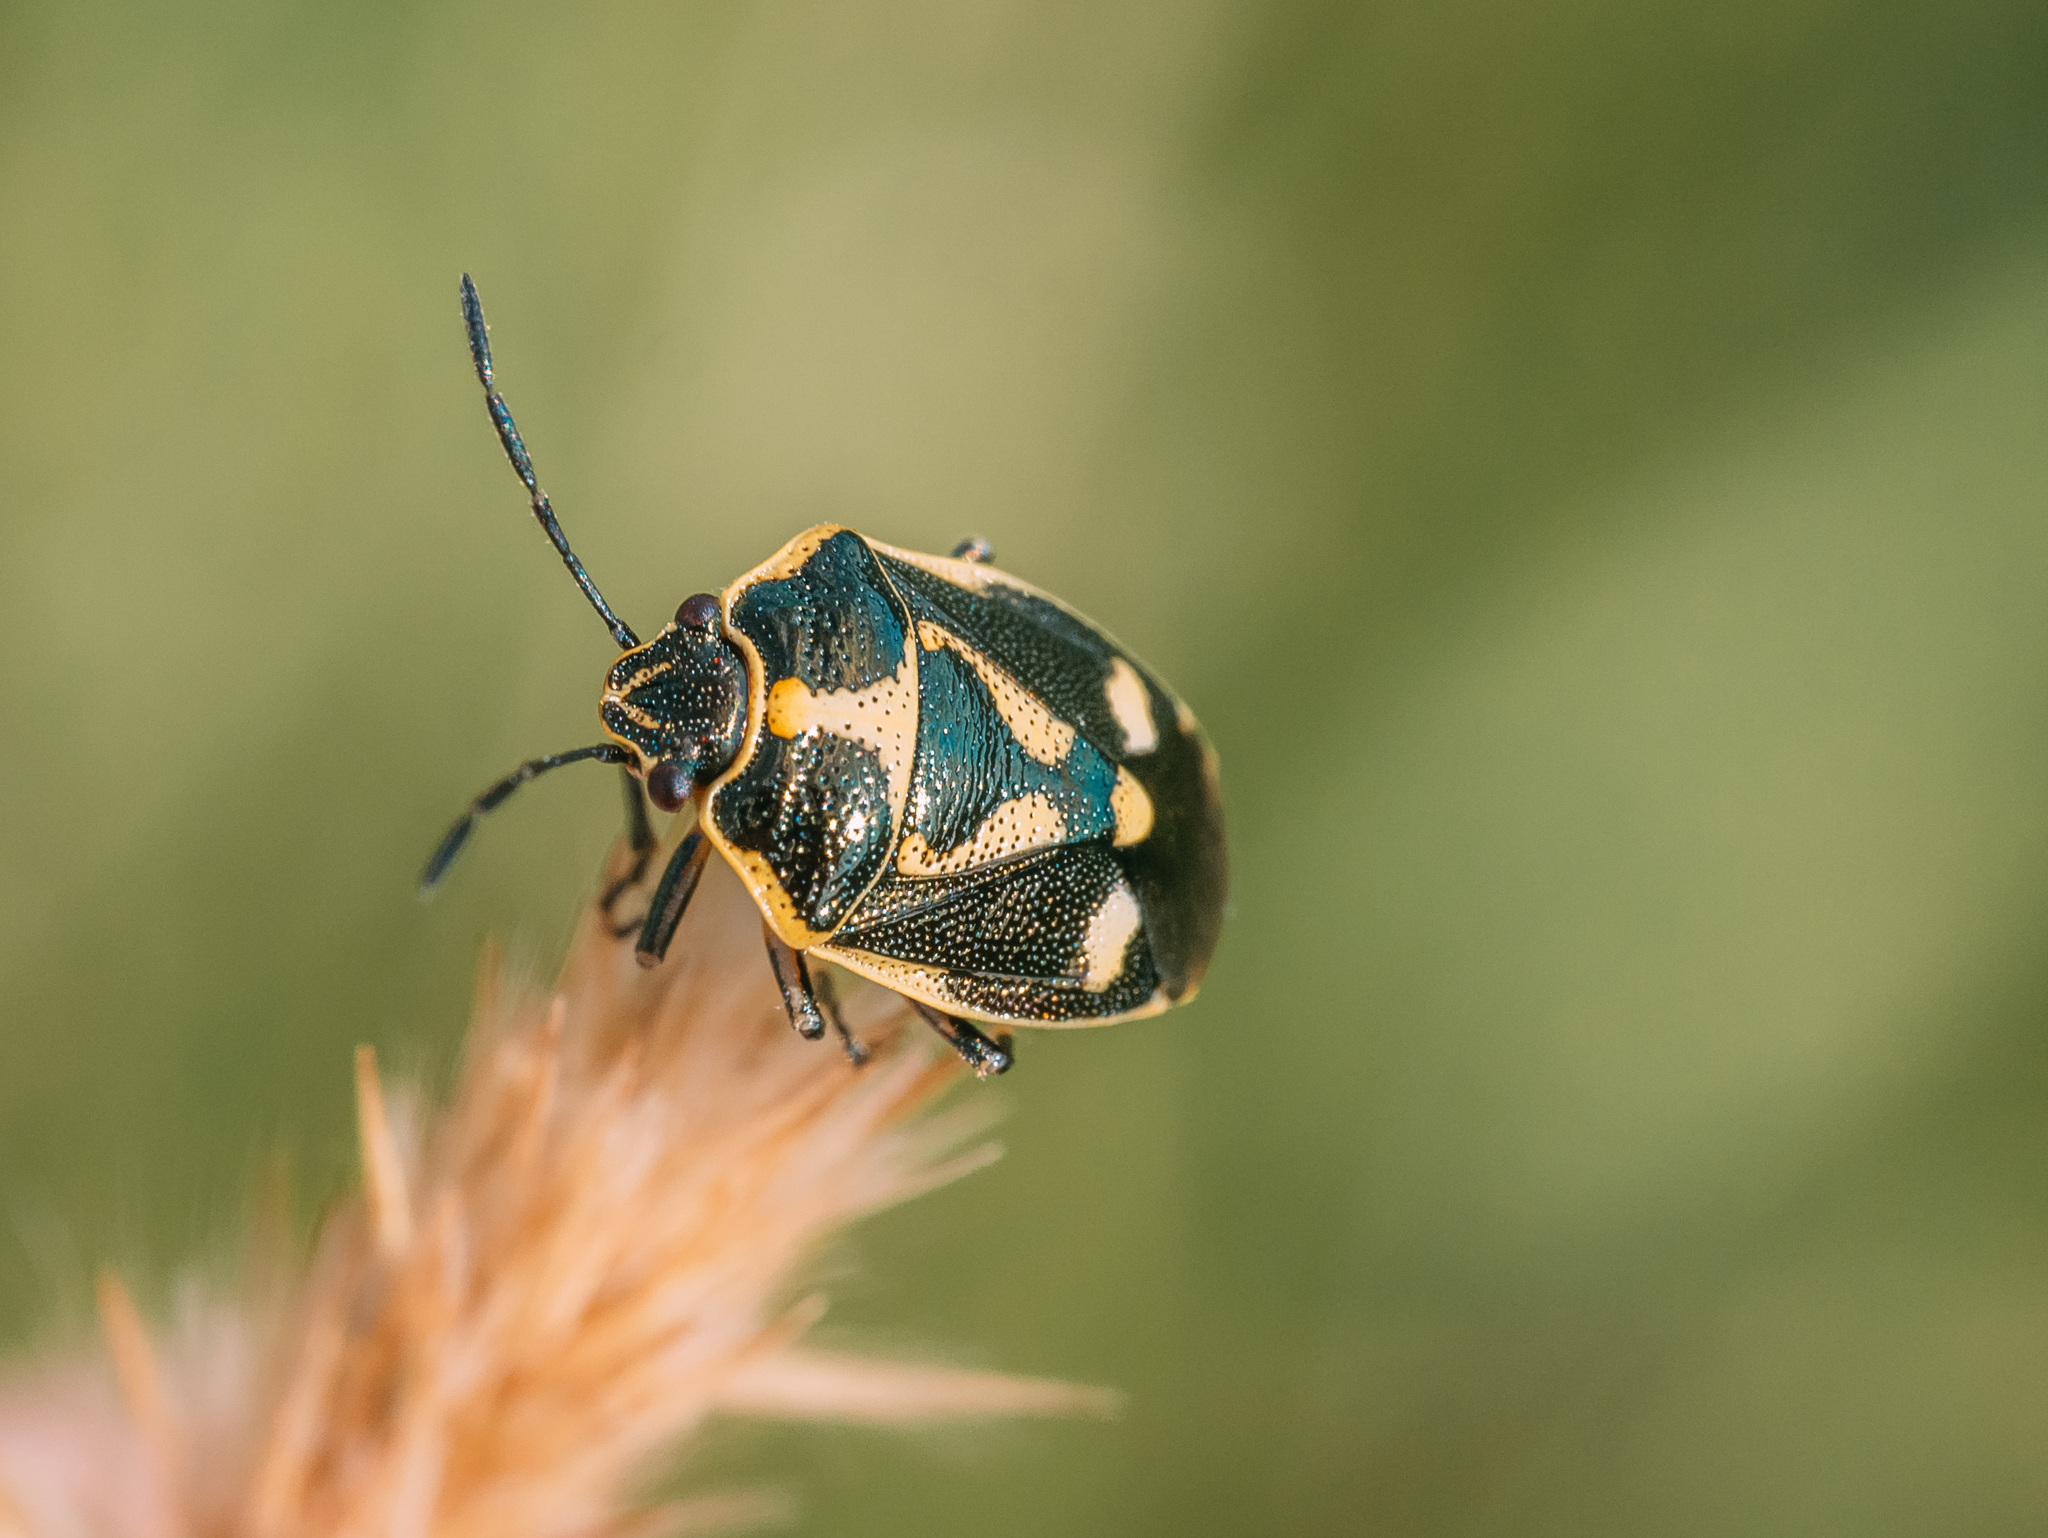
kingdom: Animalia
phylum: Arthropoda
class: Insecta
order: Hemiptera
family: Pentatomidae
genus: Eurydema
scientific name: Eurydema oleracea
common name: Cabbage bug
